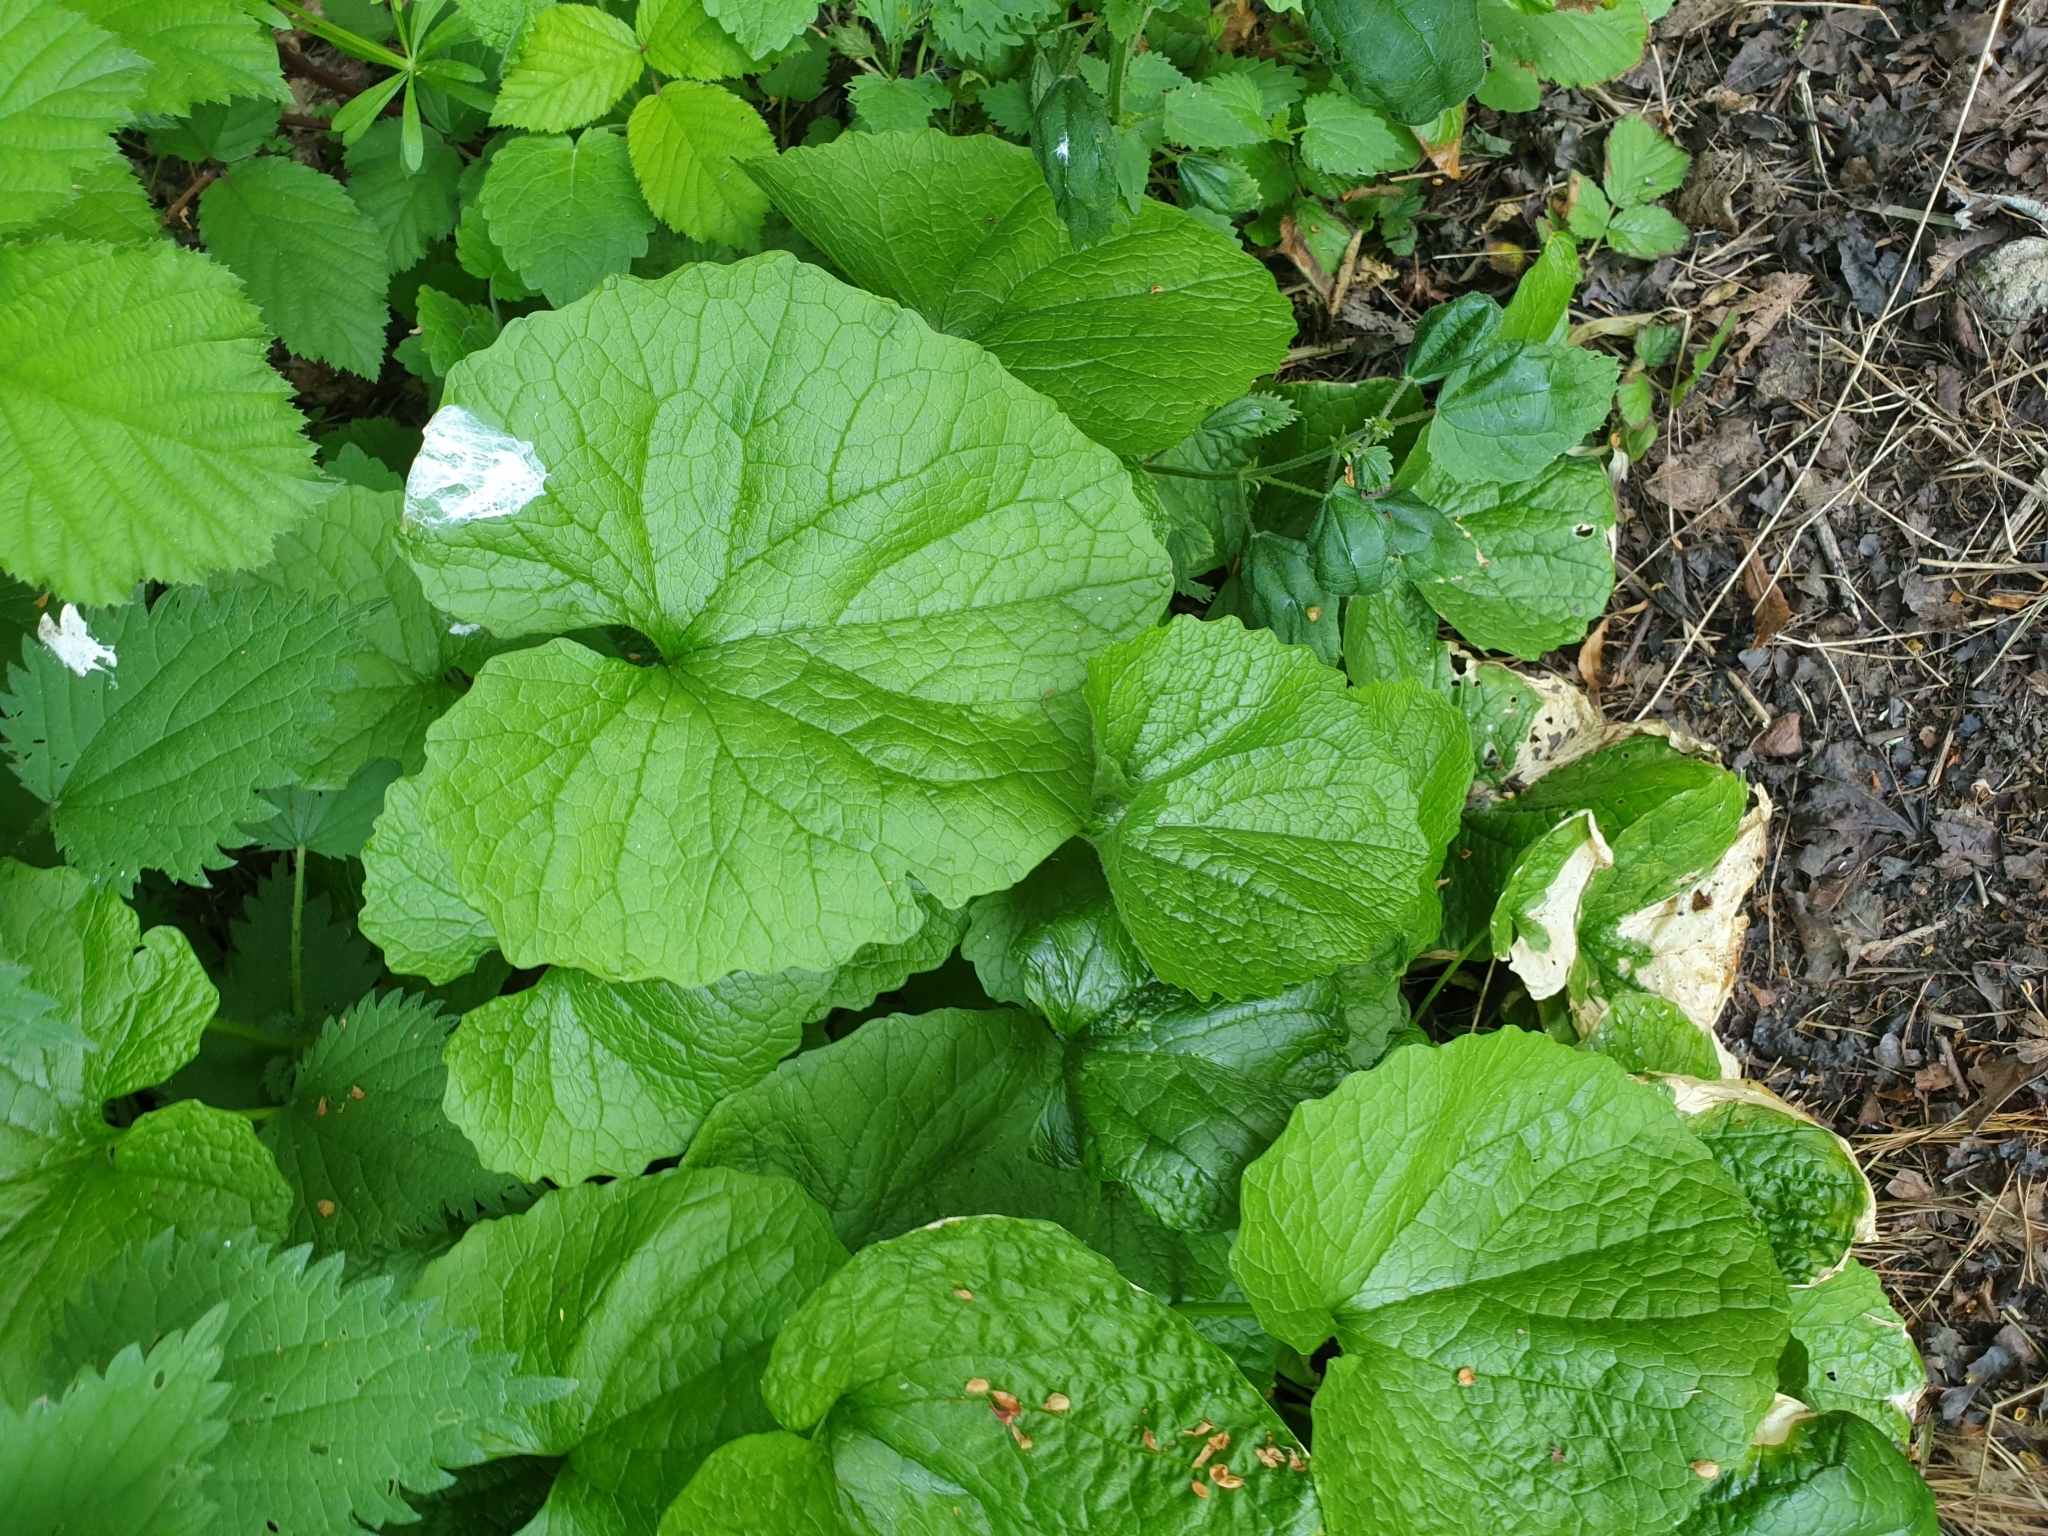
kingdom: Plantae
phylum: Tracheophyta
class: Magnoliopsida
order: Brassicales
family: Brassicaceae
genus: Alliaria
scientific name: Alliaria petiolata
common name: Garlic mustard
